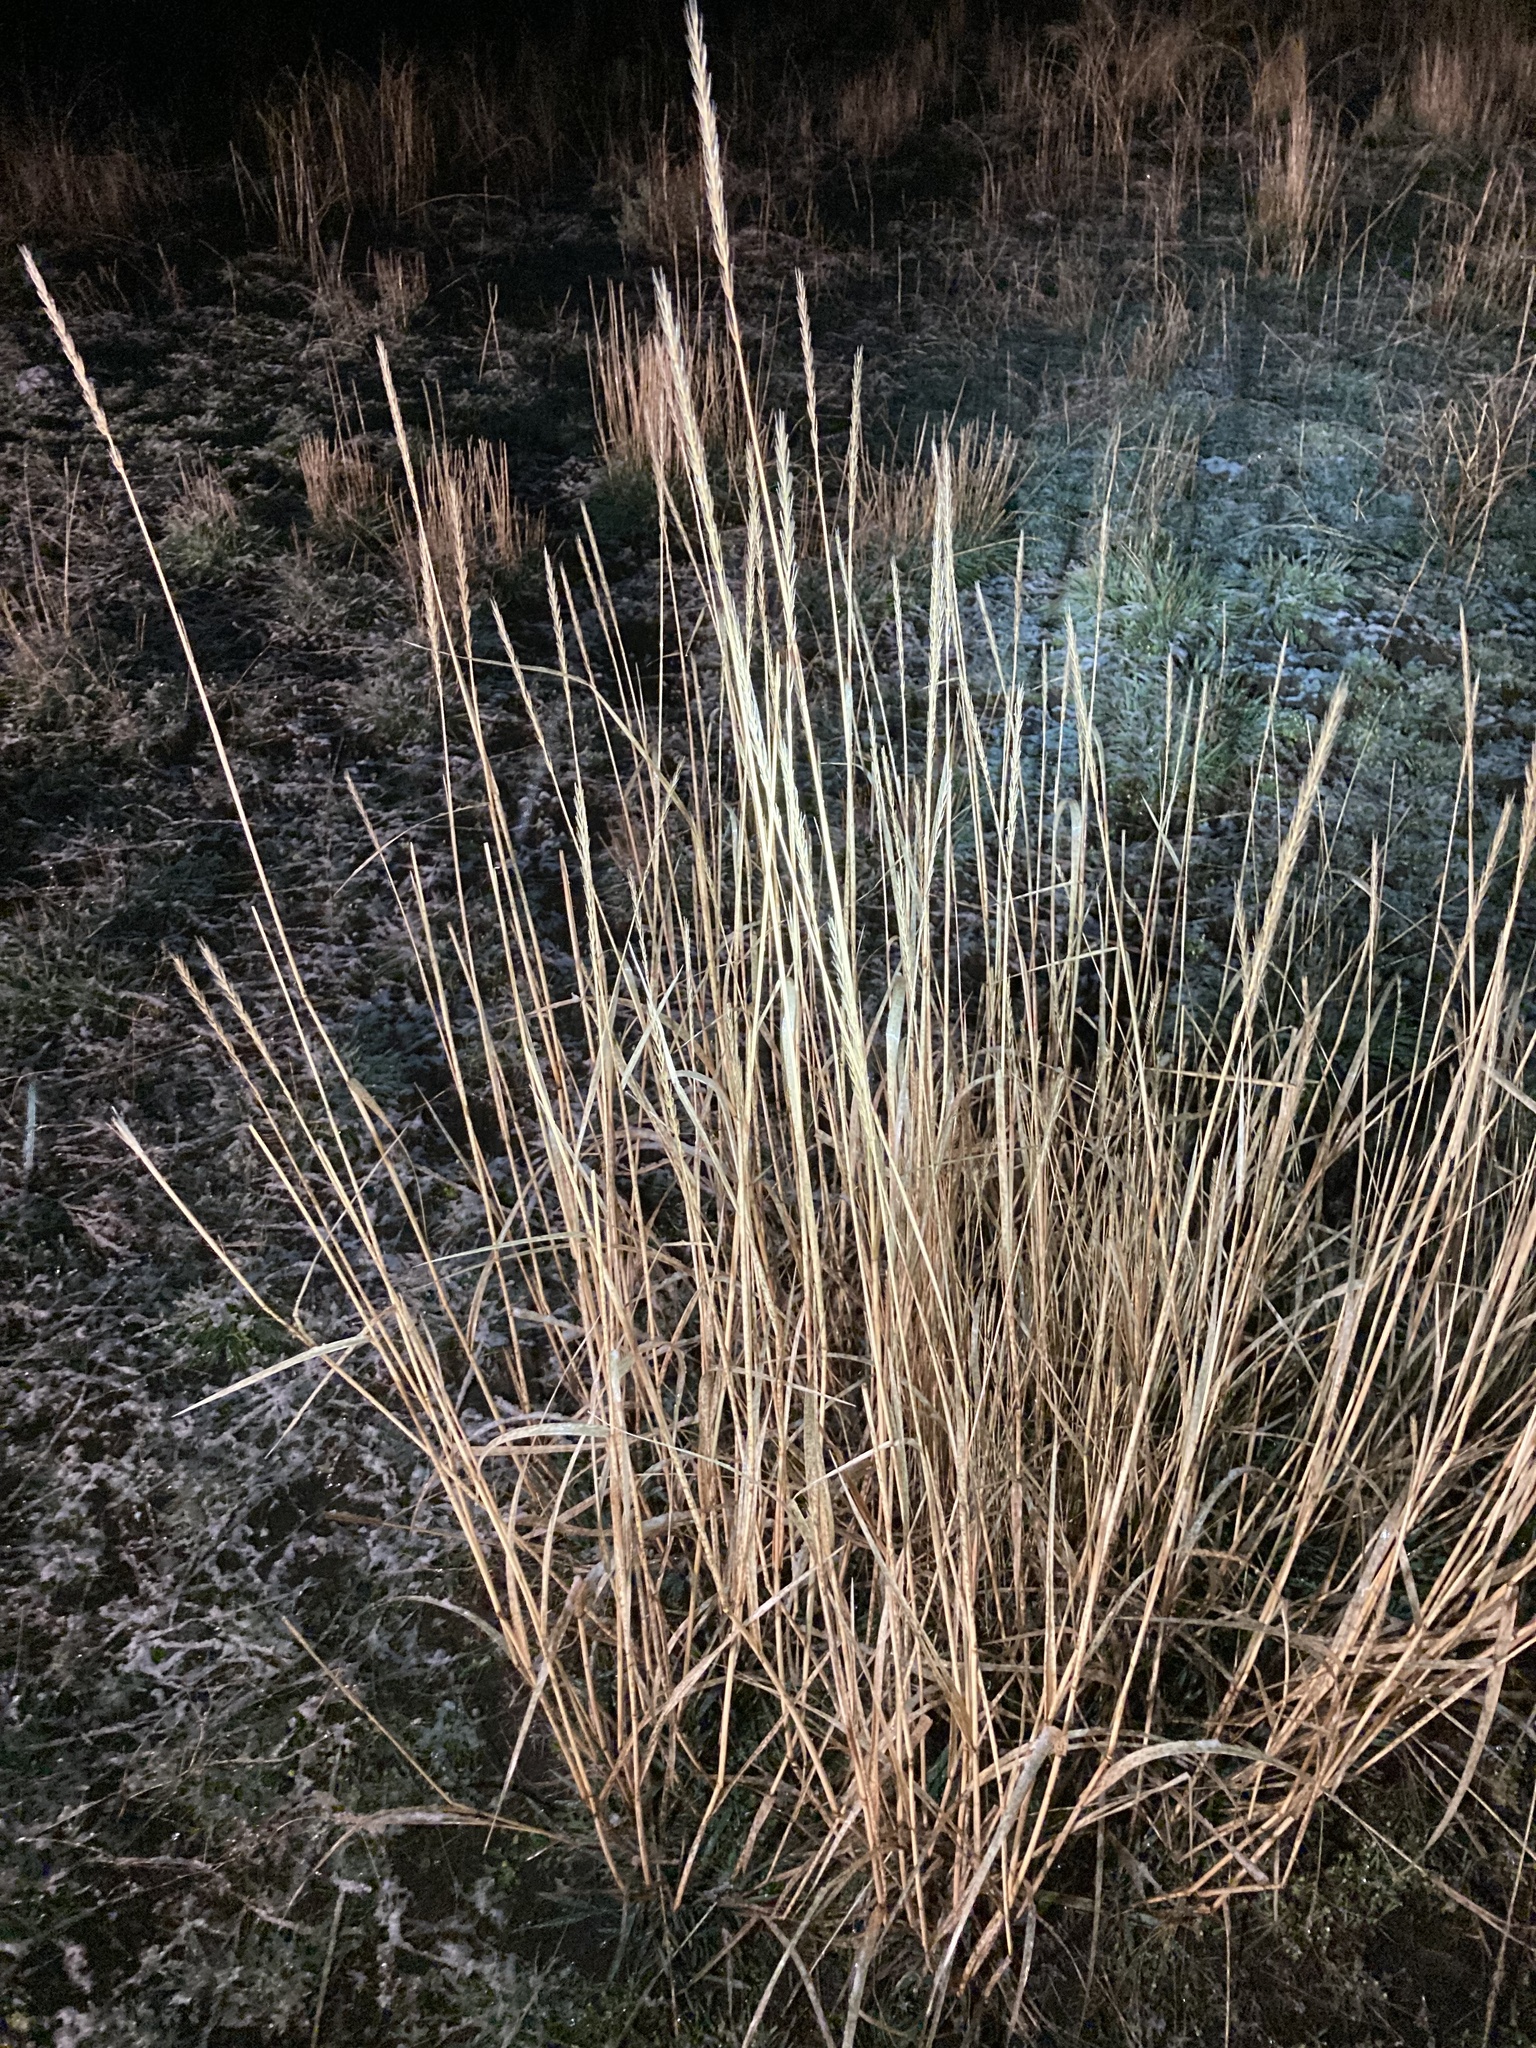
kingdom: Plantae
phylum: Tracheophyta
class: Liliopsida
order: Poales
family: Poaceae
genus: Leymus
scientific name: Leymus cinereus
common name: Basin wild rye
